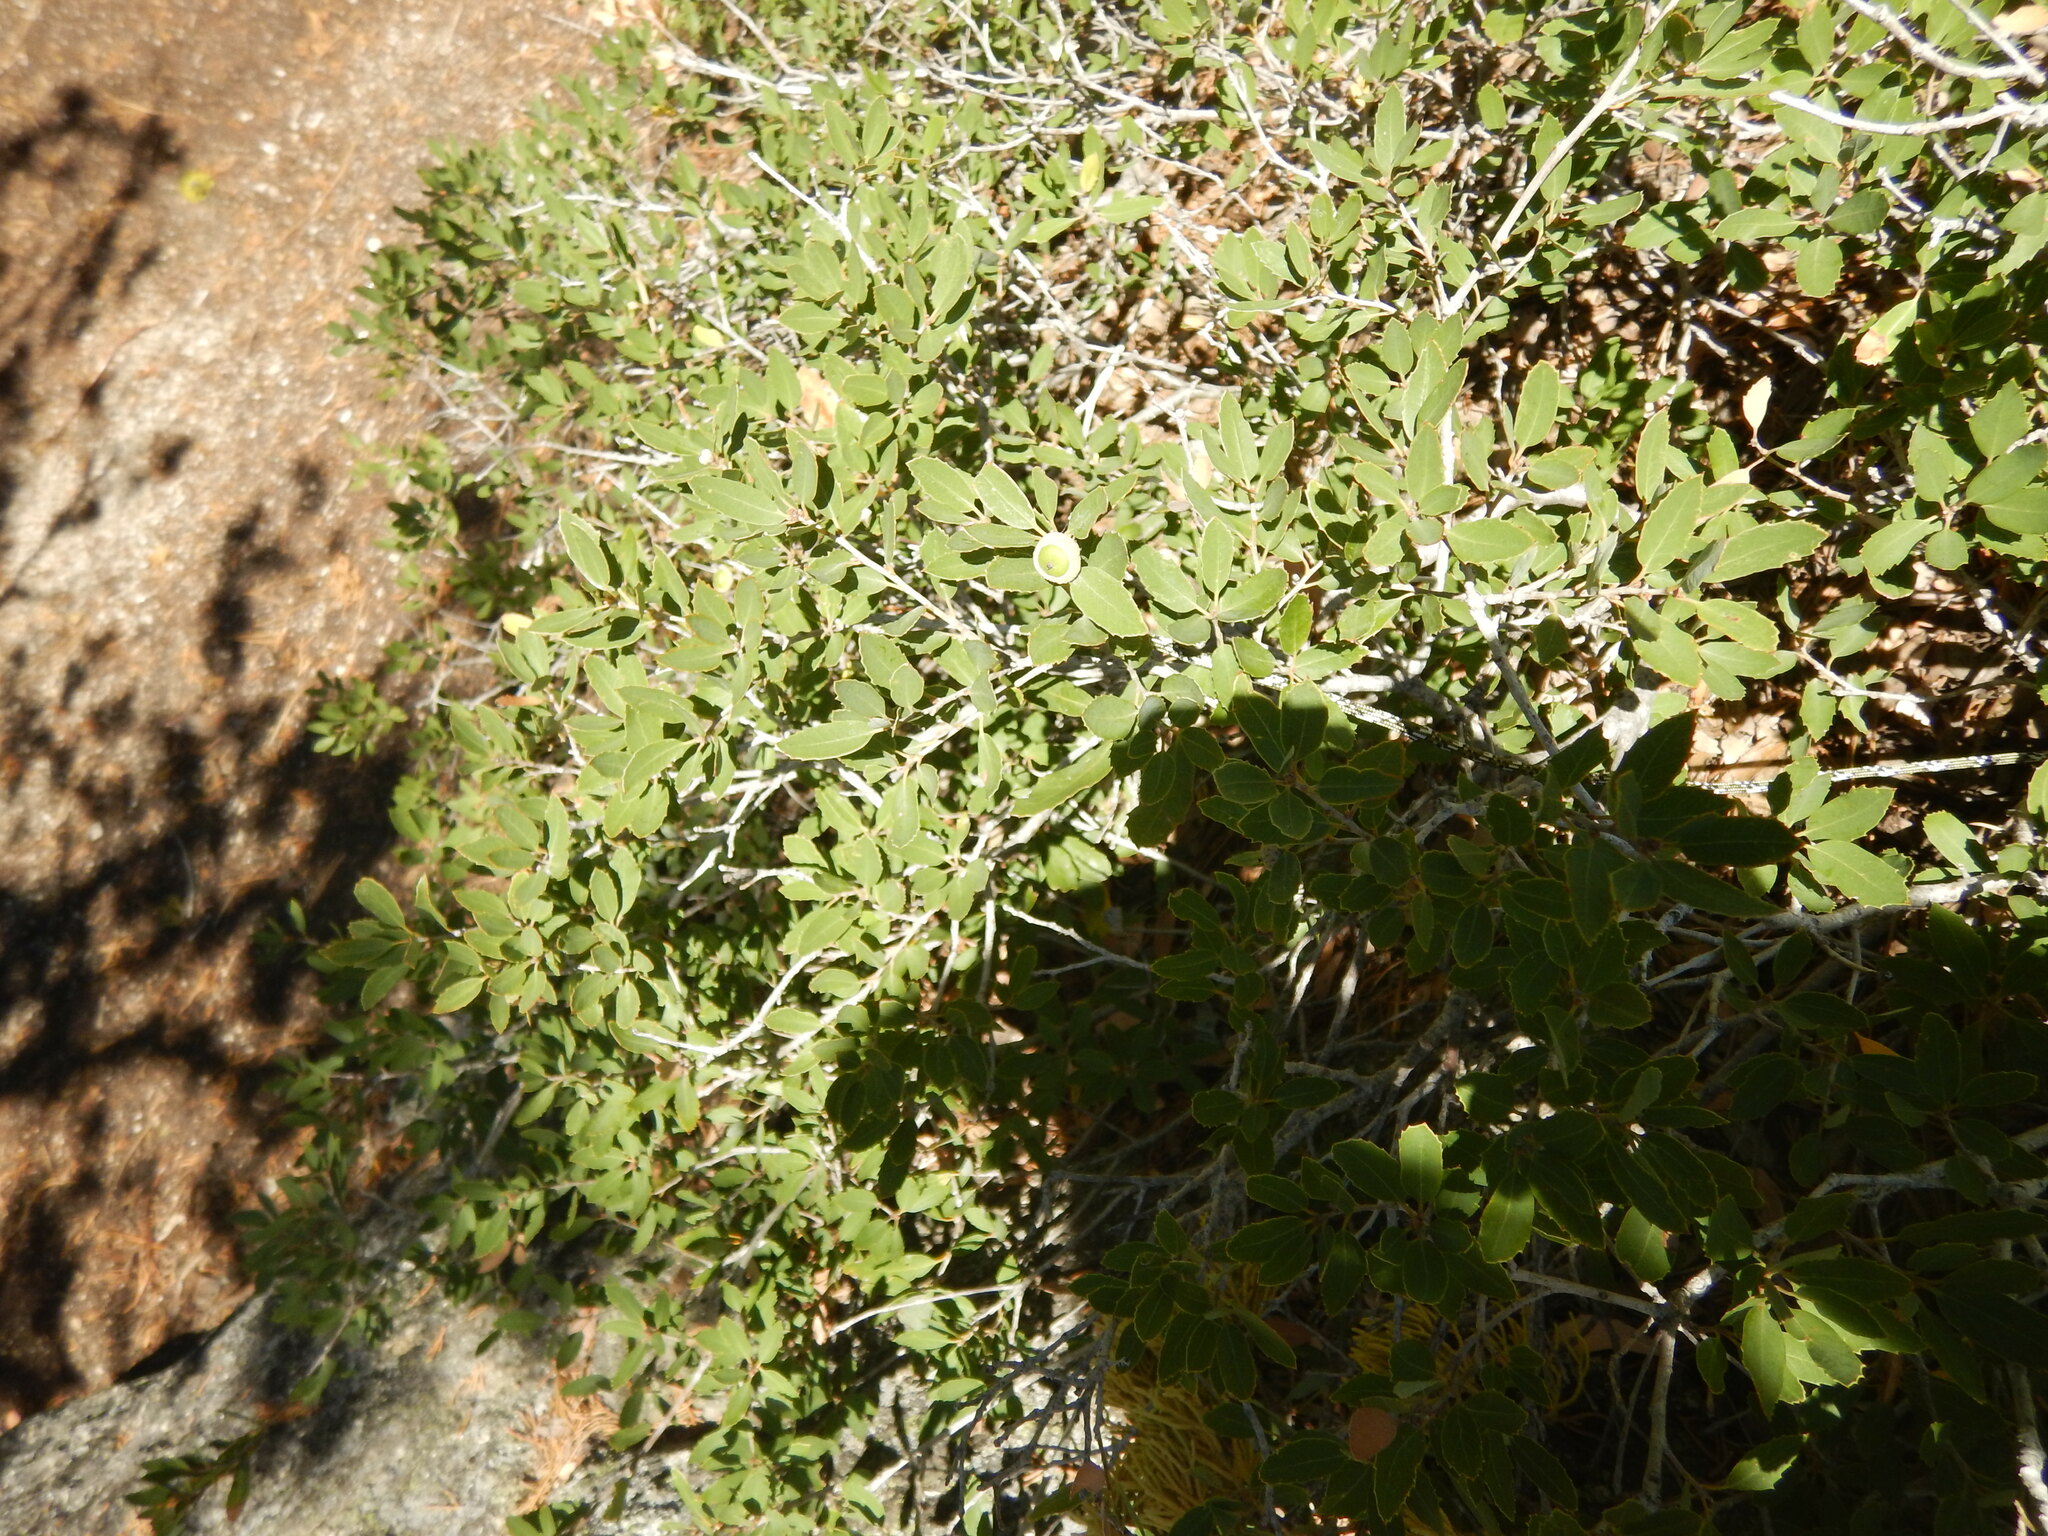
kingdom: Plantae
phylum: Tracheophyta
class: Magnoliopsida
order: Fagales
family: Fagaceae
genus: Quercus
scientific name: Quercus vacciniifolia
